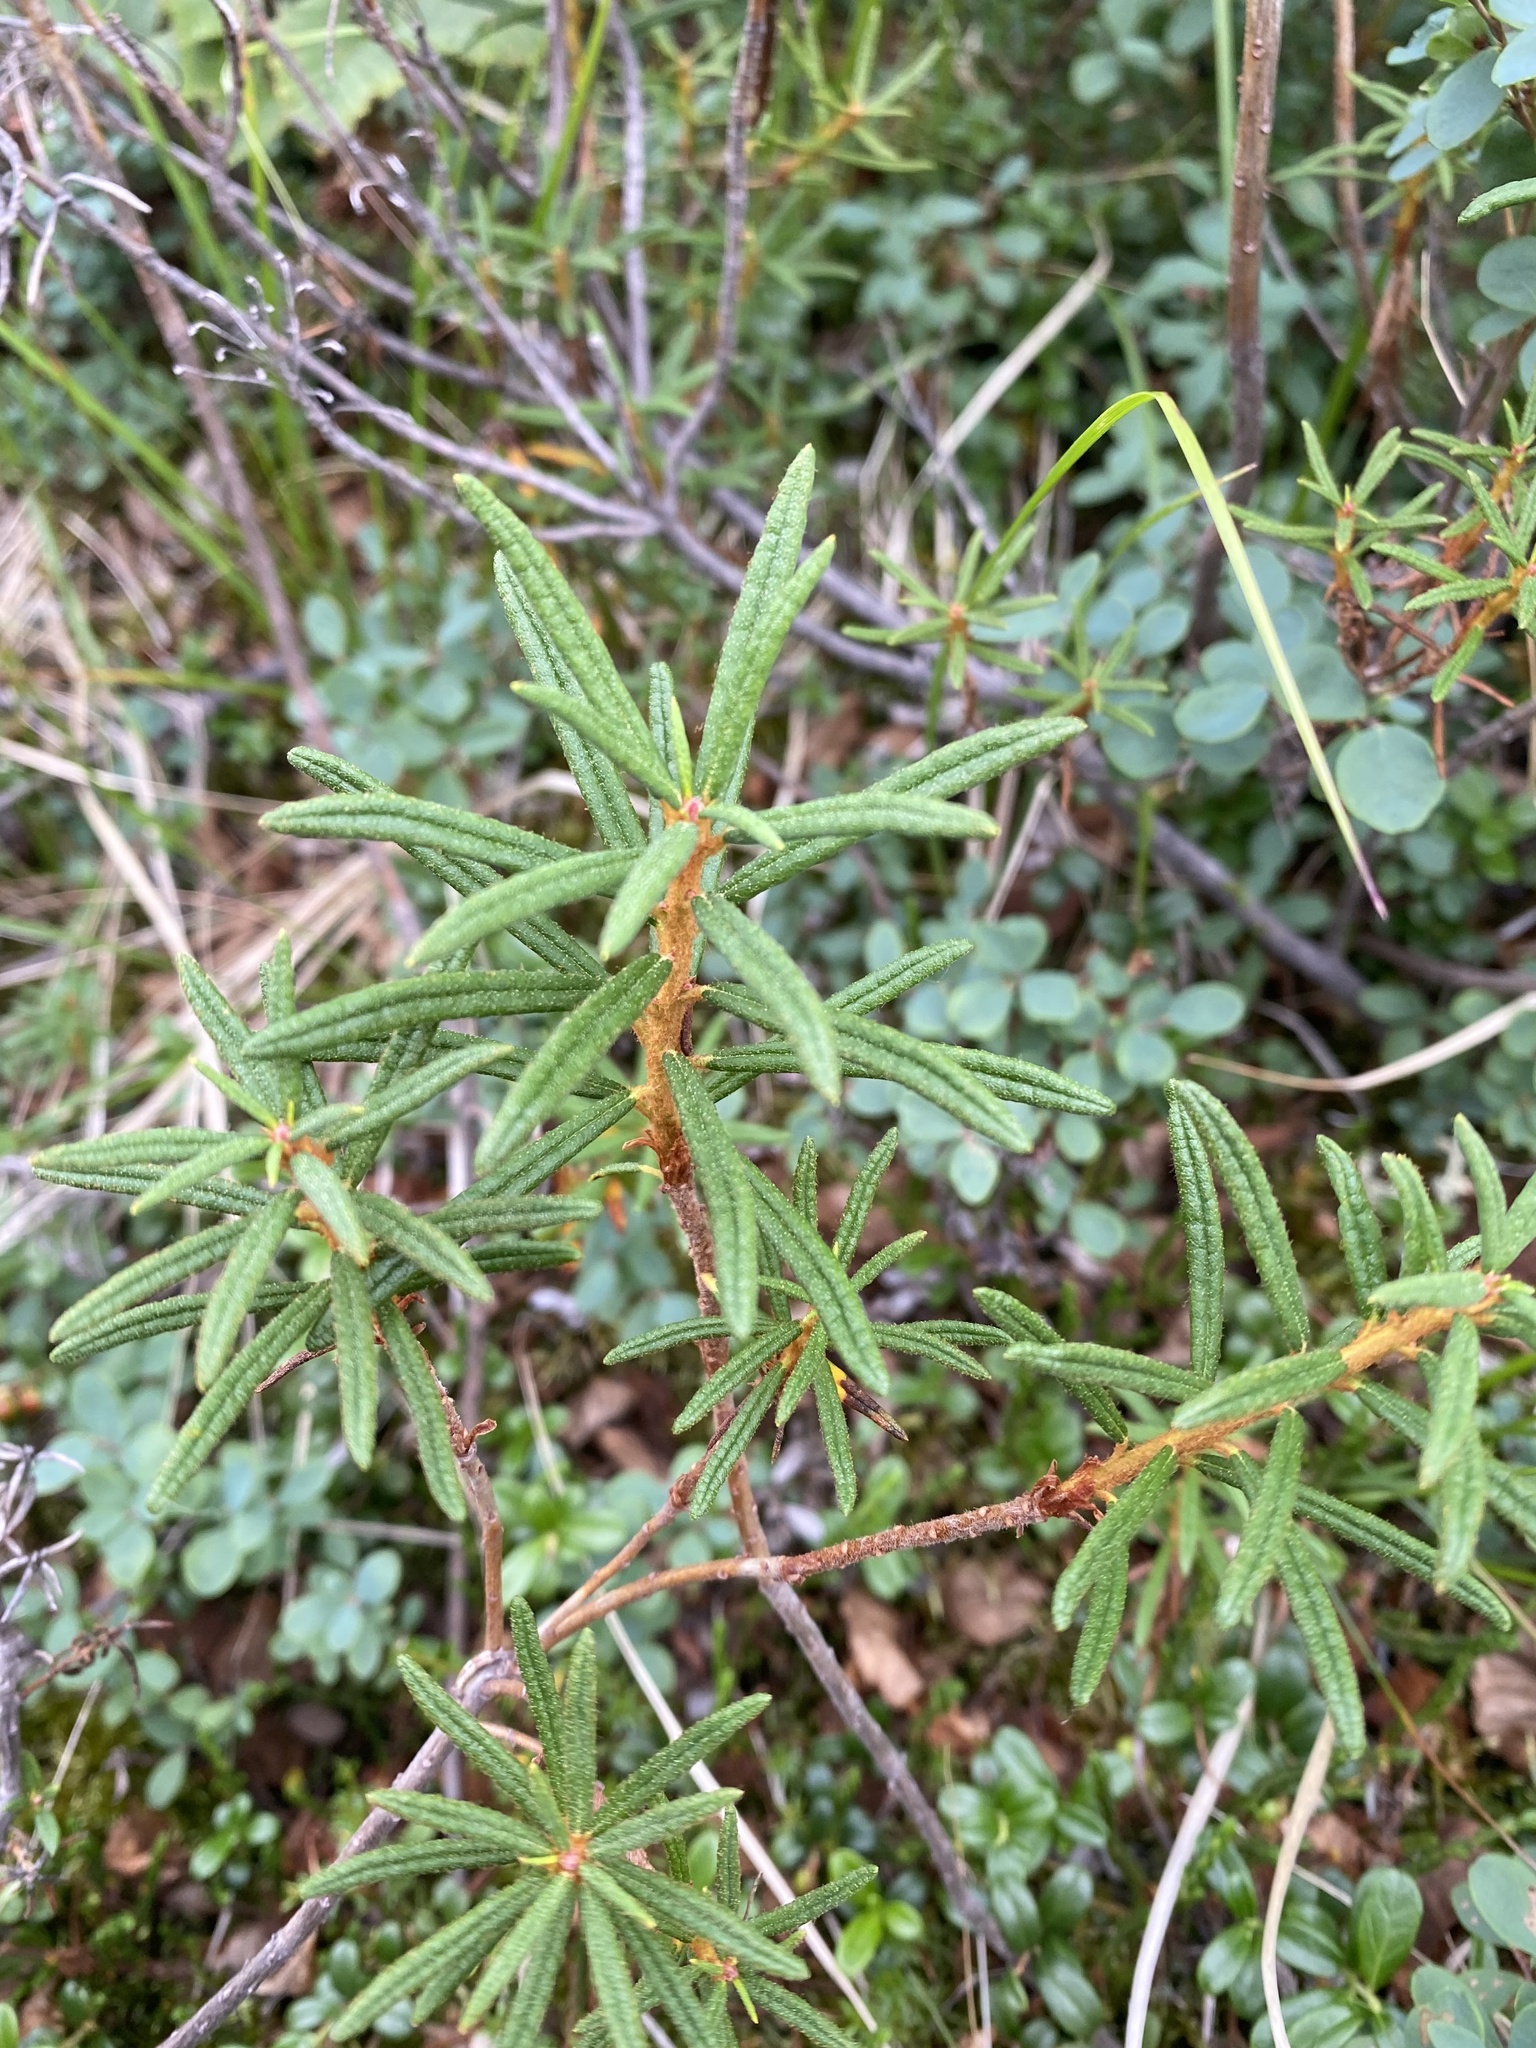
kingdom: Plantae
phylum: Tracheophyta
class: Magnoliopsida
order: Ericales
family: Ericaceae
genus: Rhododendron
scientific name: Rhododendron tomentosum
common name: Marsh labrador tea
